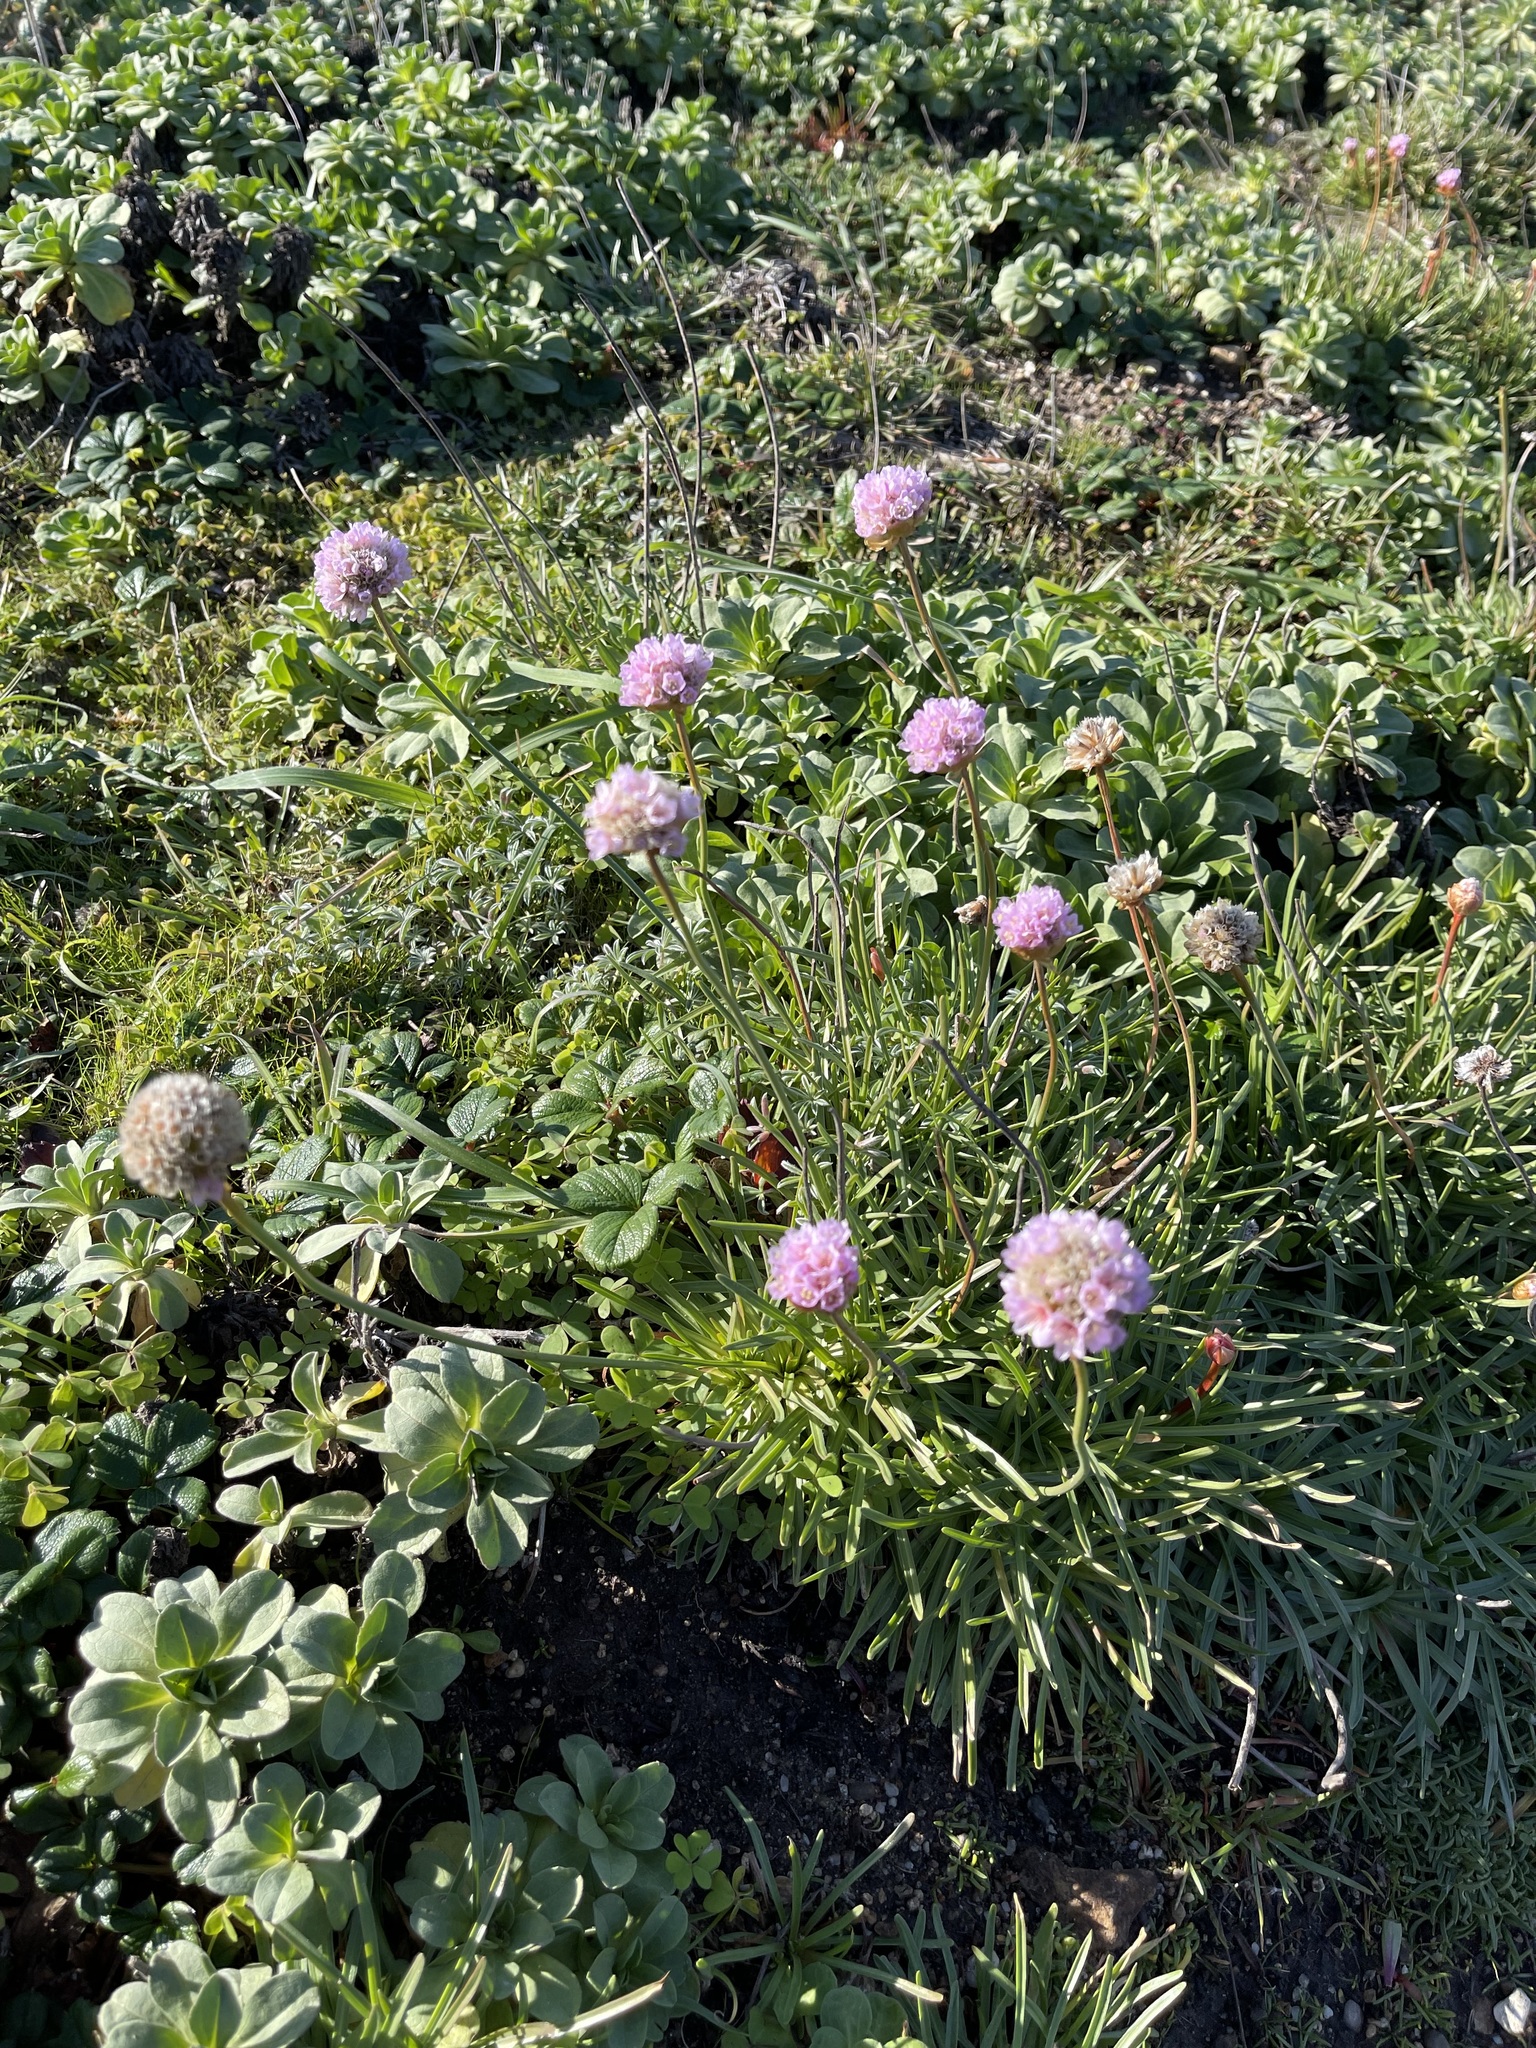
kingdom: Plantae
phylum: Tracheophyta
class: Magnoliopsida
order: Caryophyllales
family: Plumbaginaceae
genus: Armeria
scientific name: Armeria maritima
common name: Thrift
